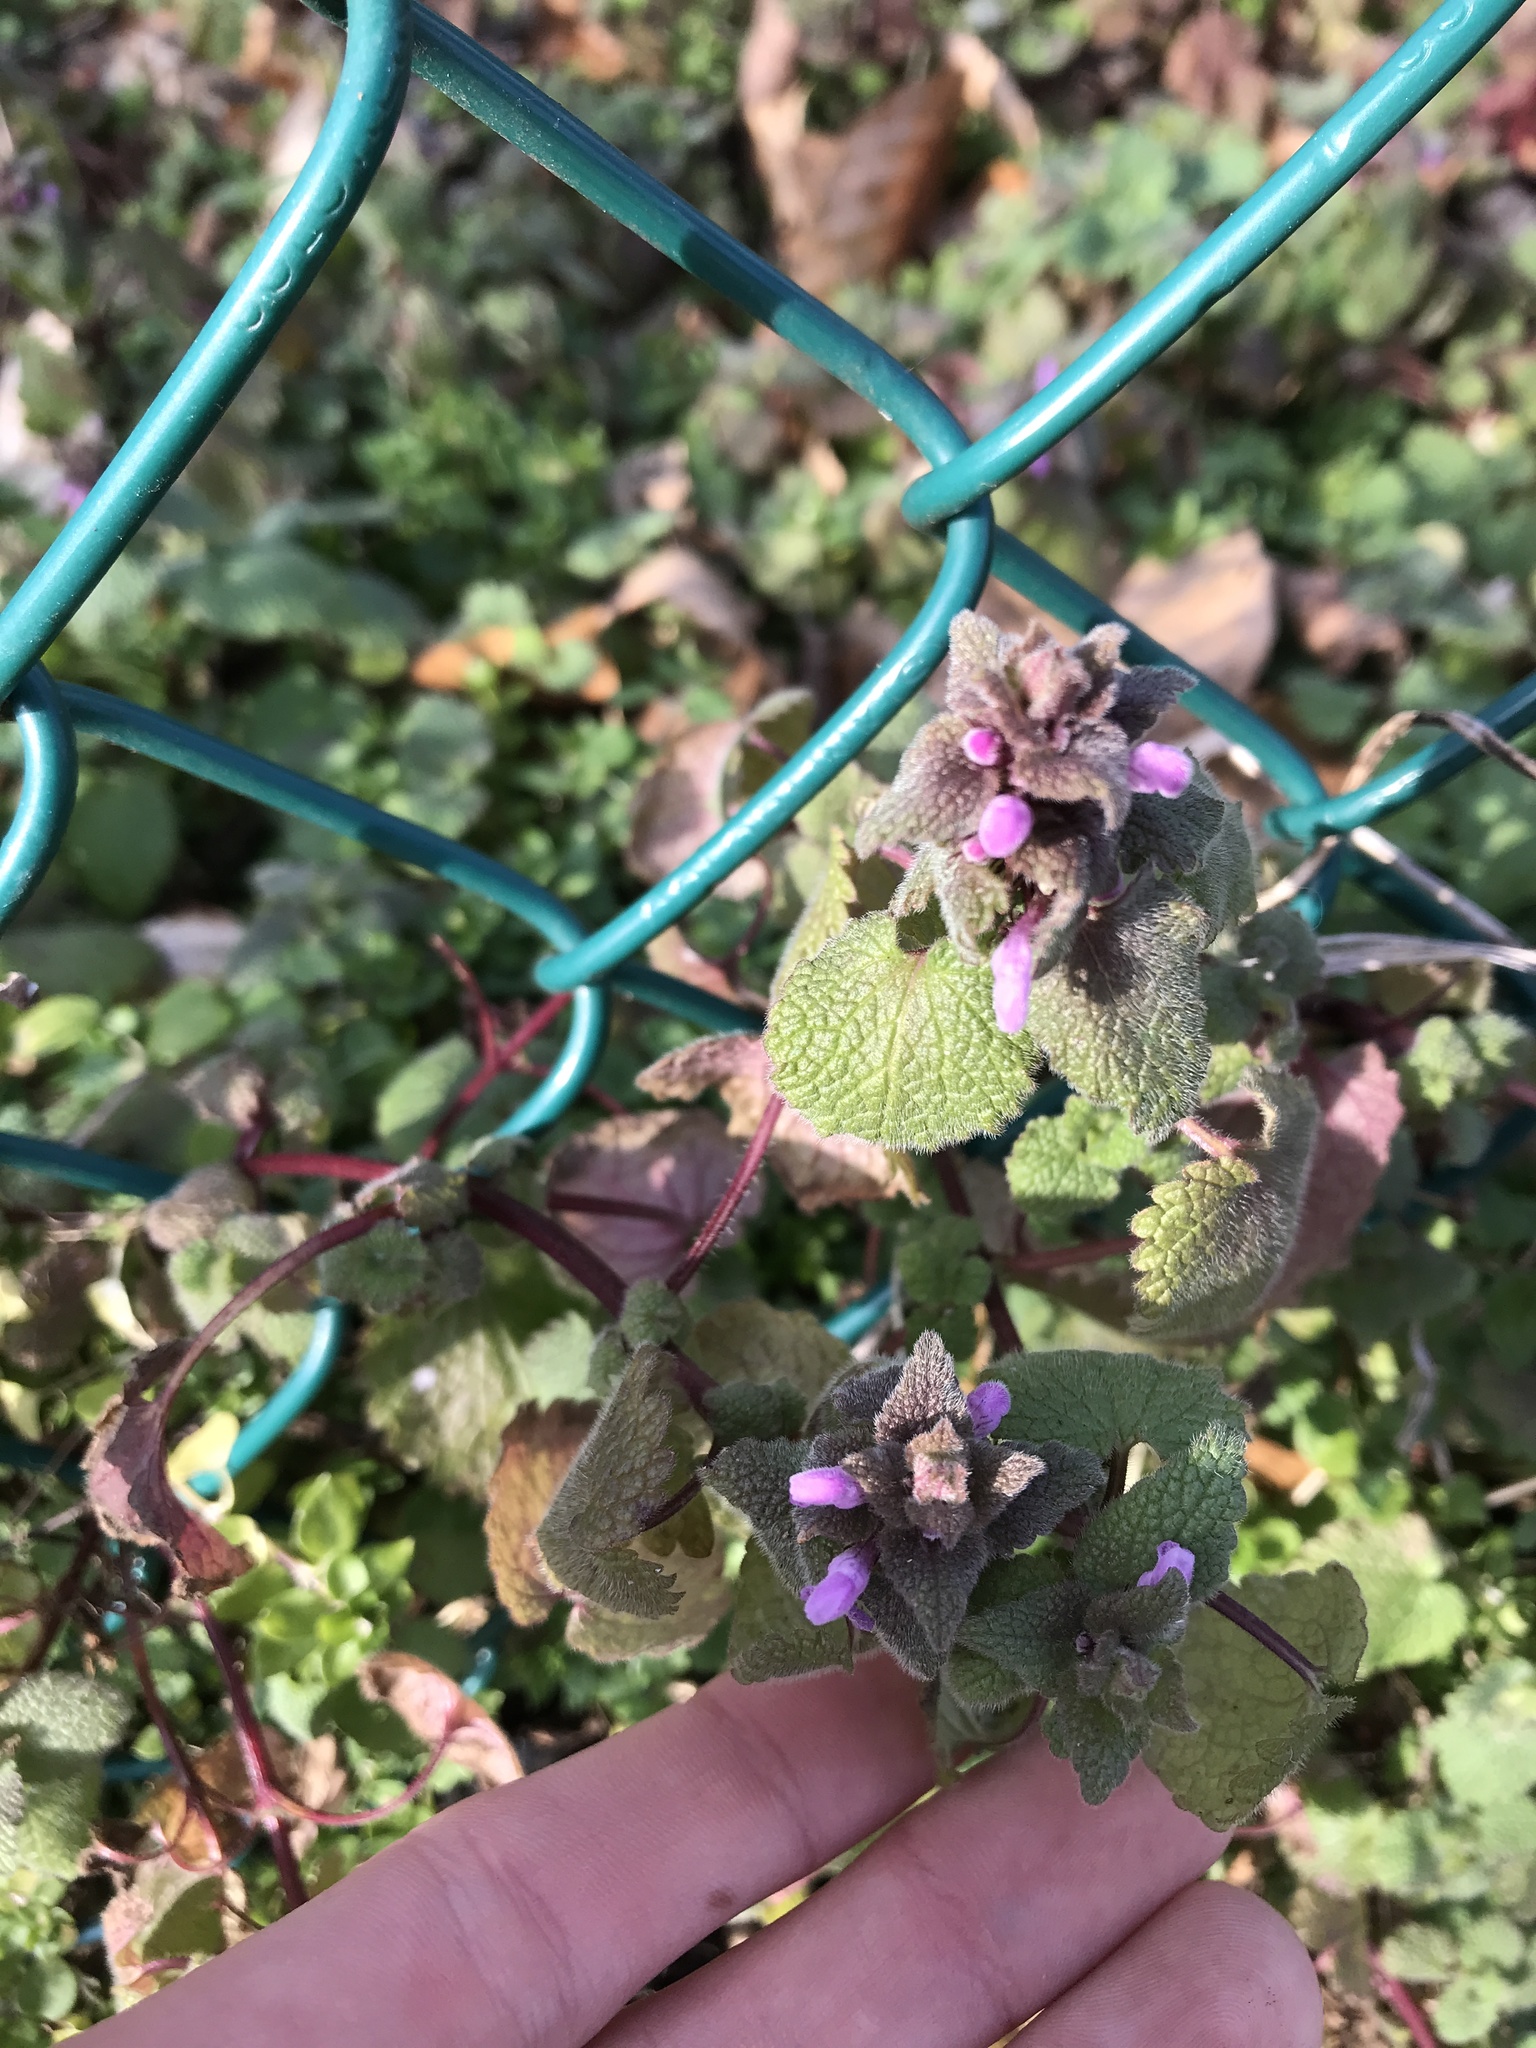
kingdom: Plantae
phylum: Tracheophyta
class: Magnoliopsida
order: Lamiales
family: Lamiaceae
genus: Lamium
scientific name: Lamium purpureum
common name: Red dead-nettle
